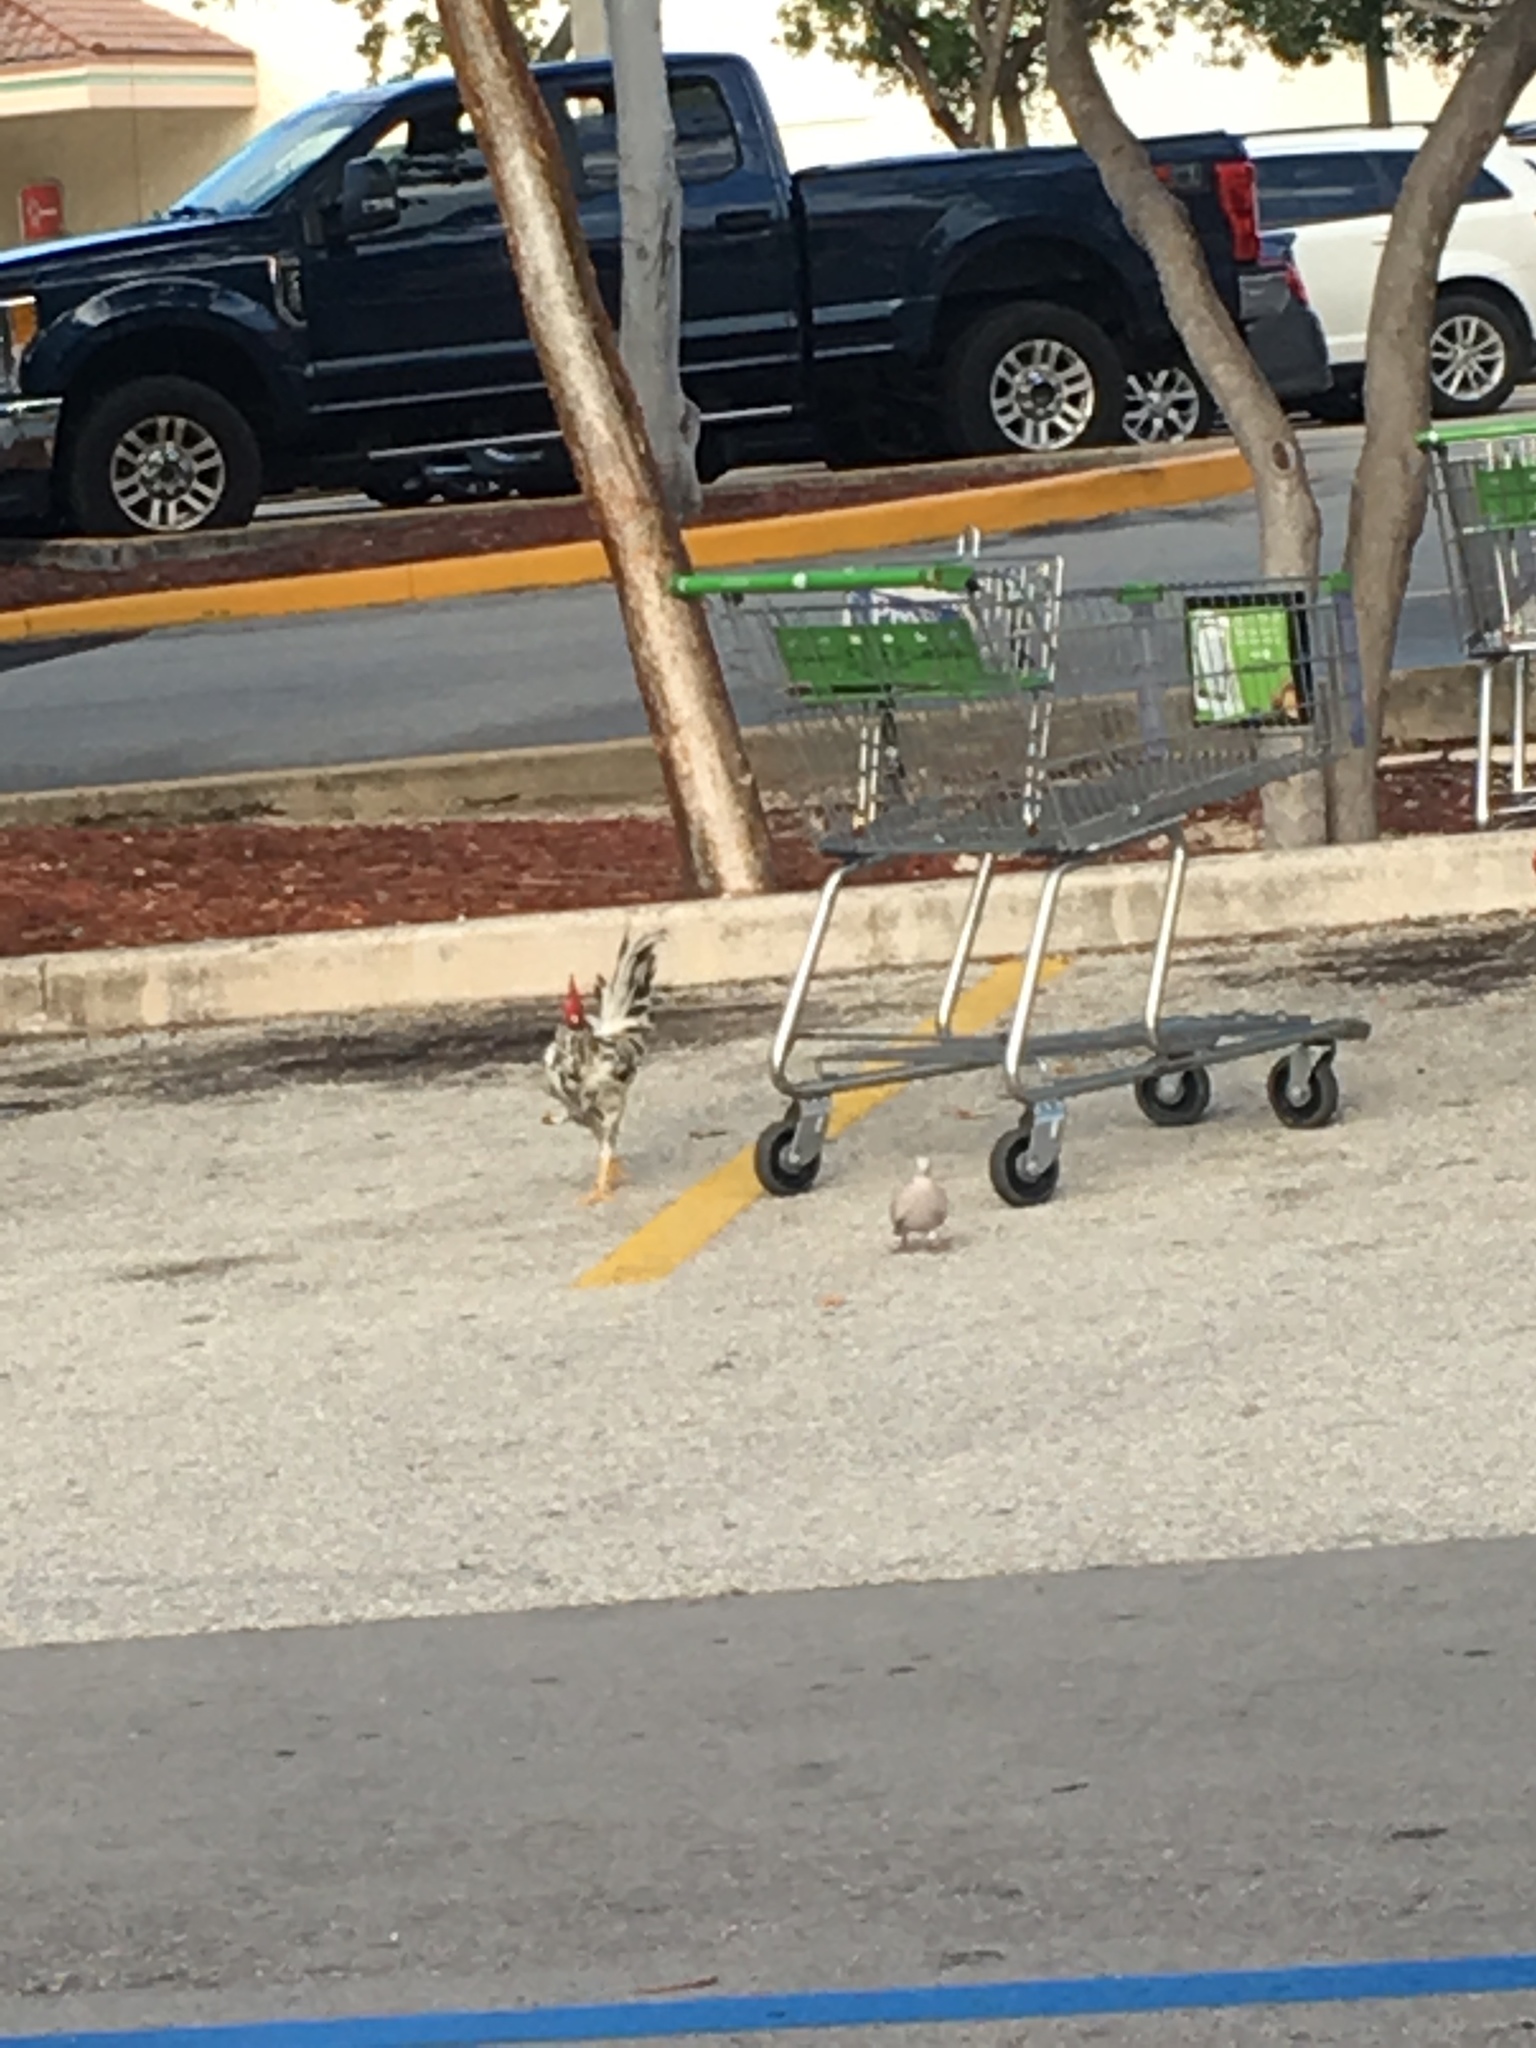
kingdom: Animalia
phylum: Chordata
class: Aves
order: Galliformes
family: Phasianidae
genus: Gallus
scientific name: Gallus gallus
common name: Red junglefowl
